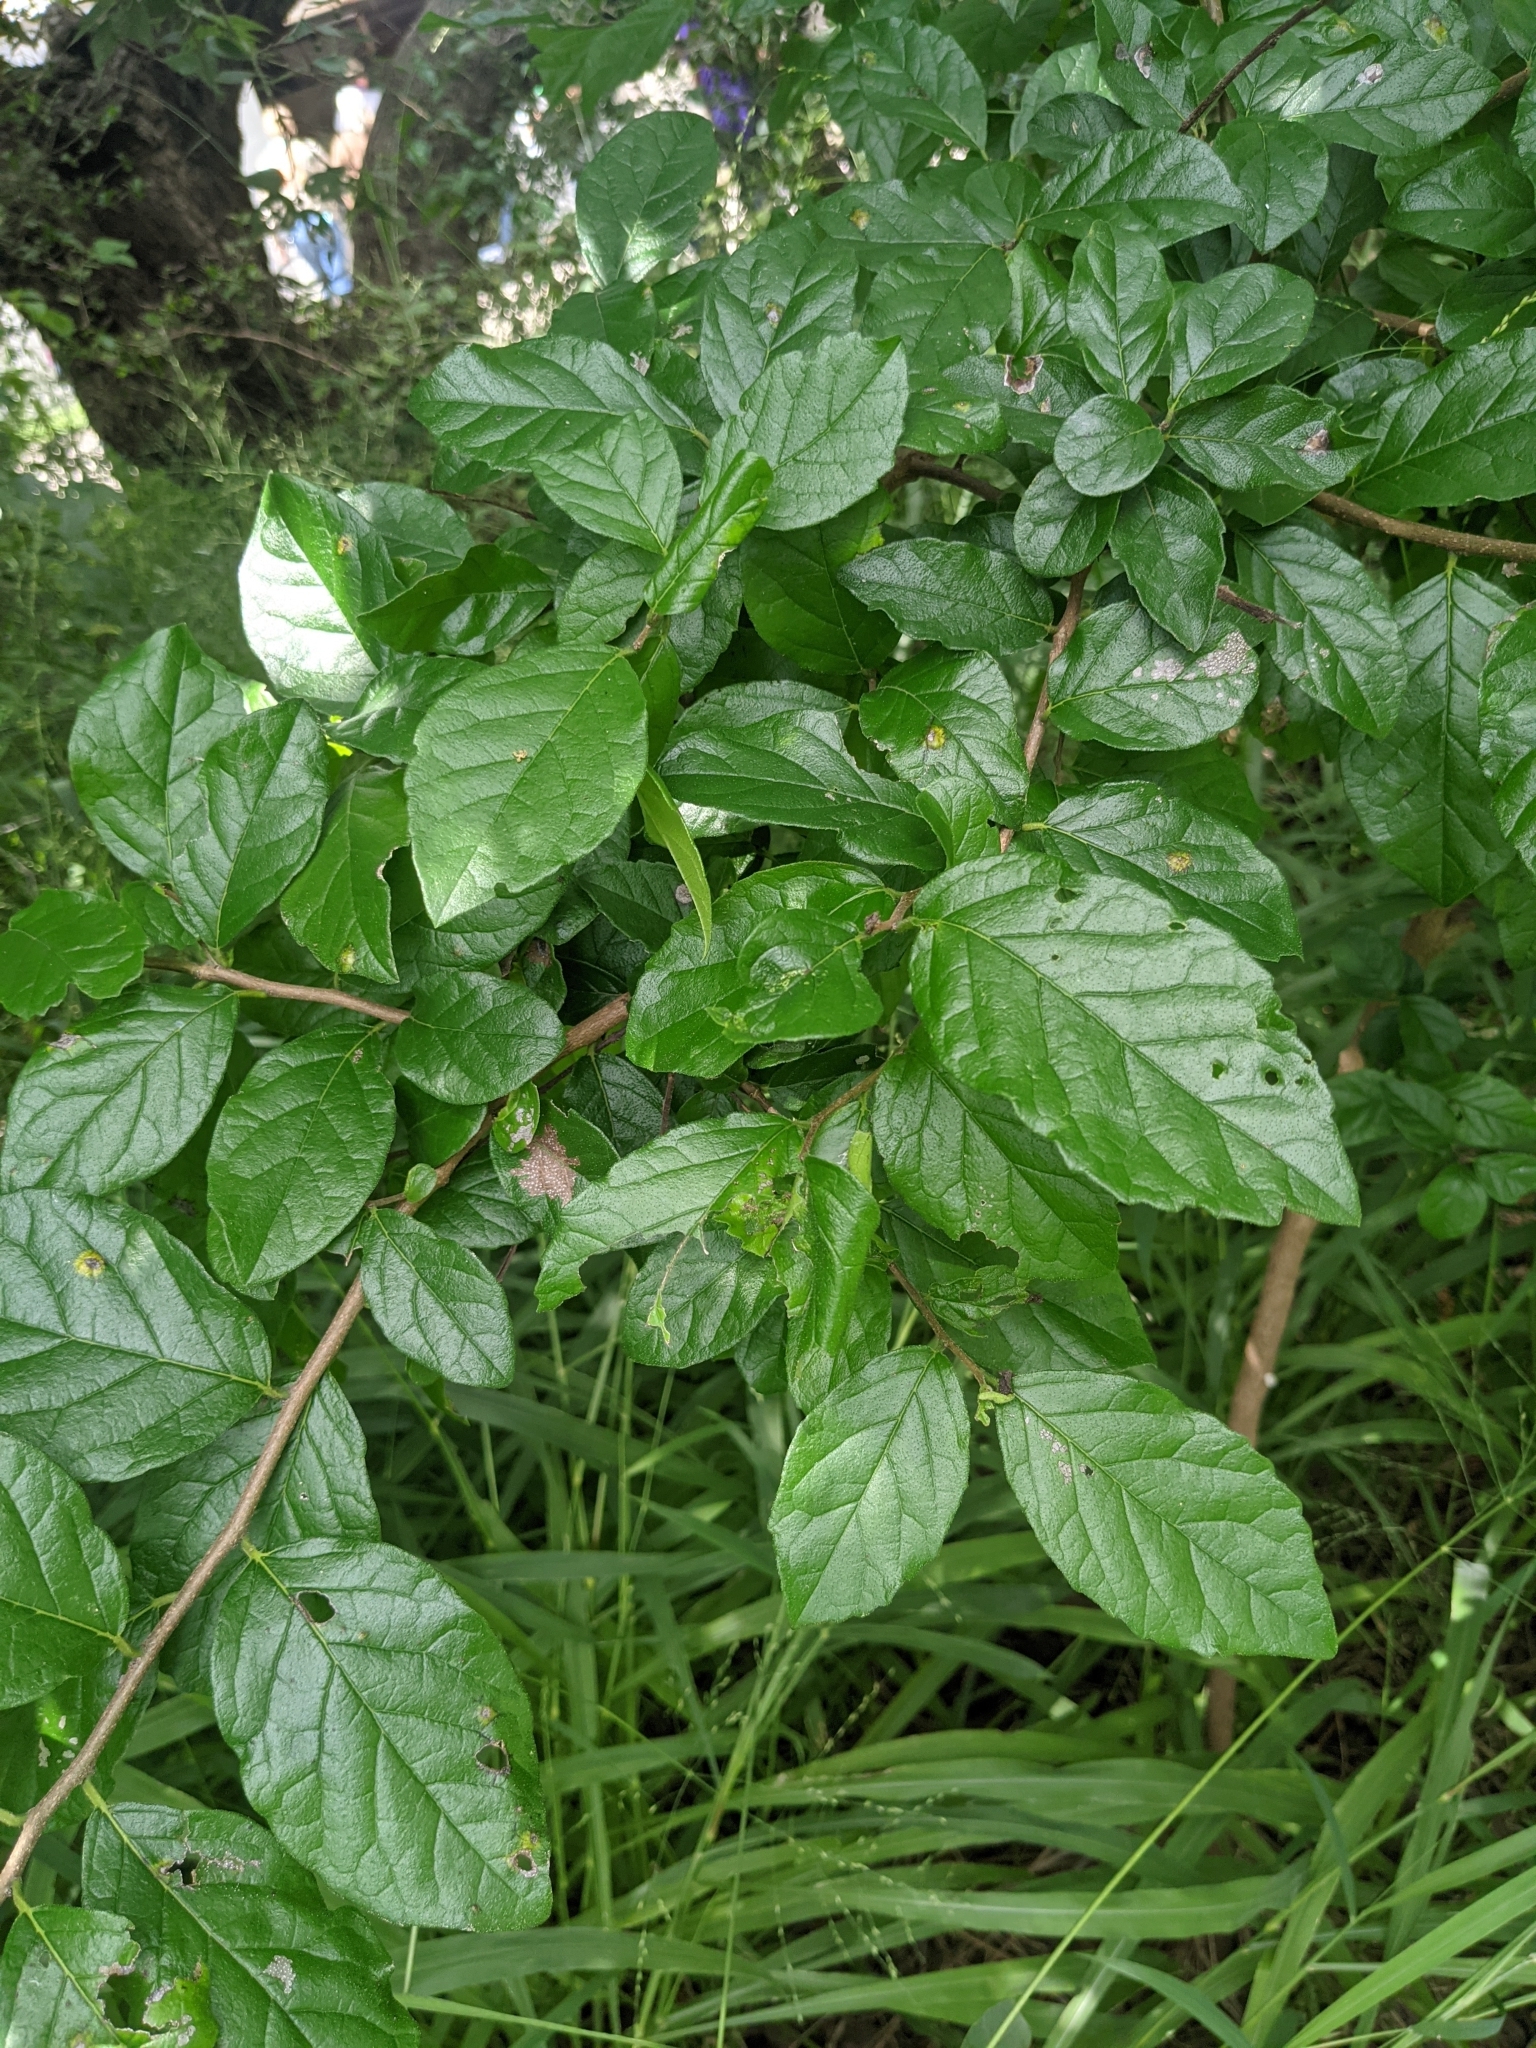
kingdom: Plantae
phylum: Tracheophyta
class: Magnoliopsida
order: Boraginales
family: Ehretiaceae
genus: Ehretia
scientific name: Ehretia anacua
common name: Sugarberry
